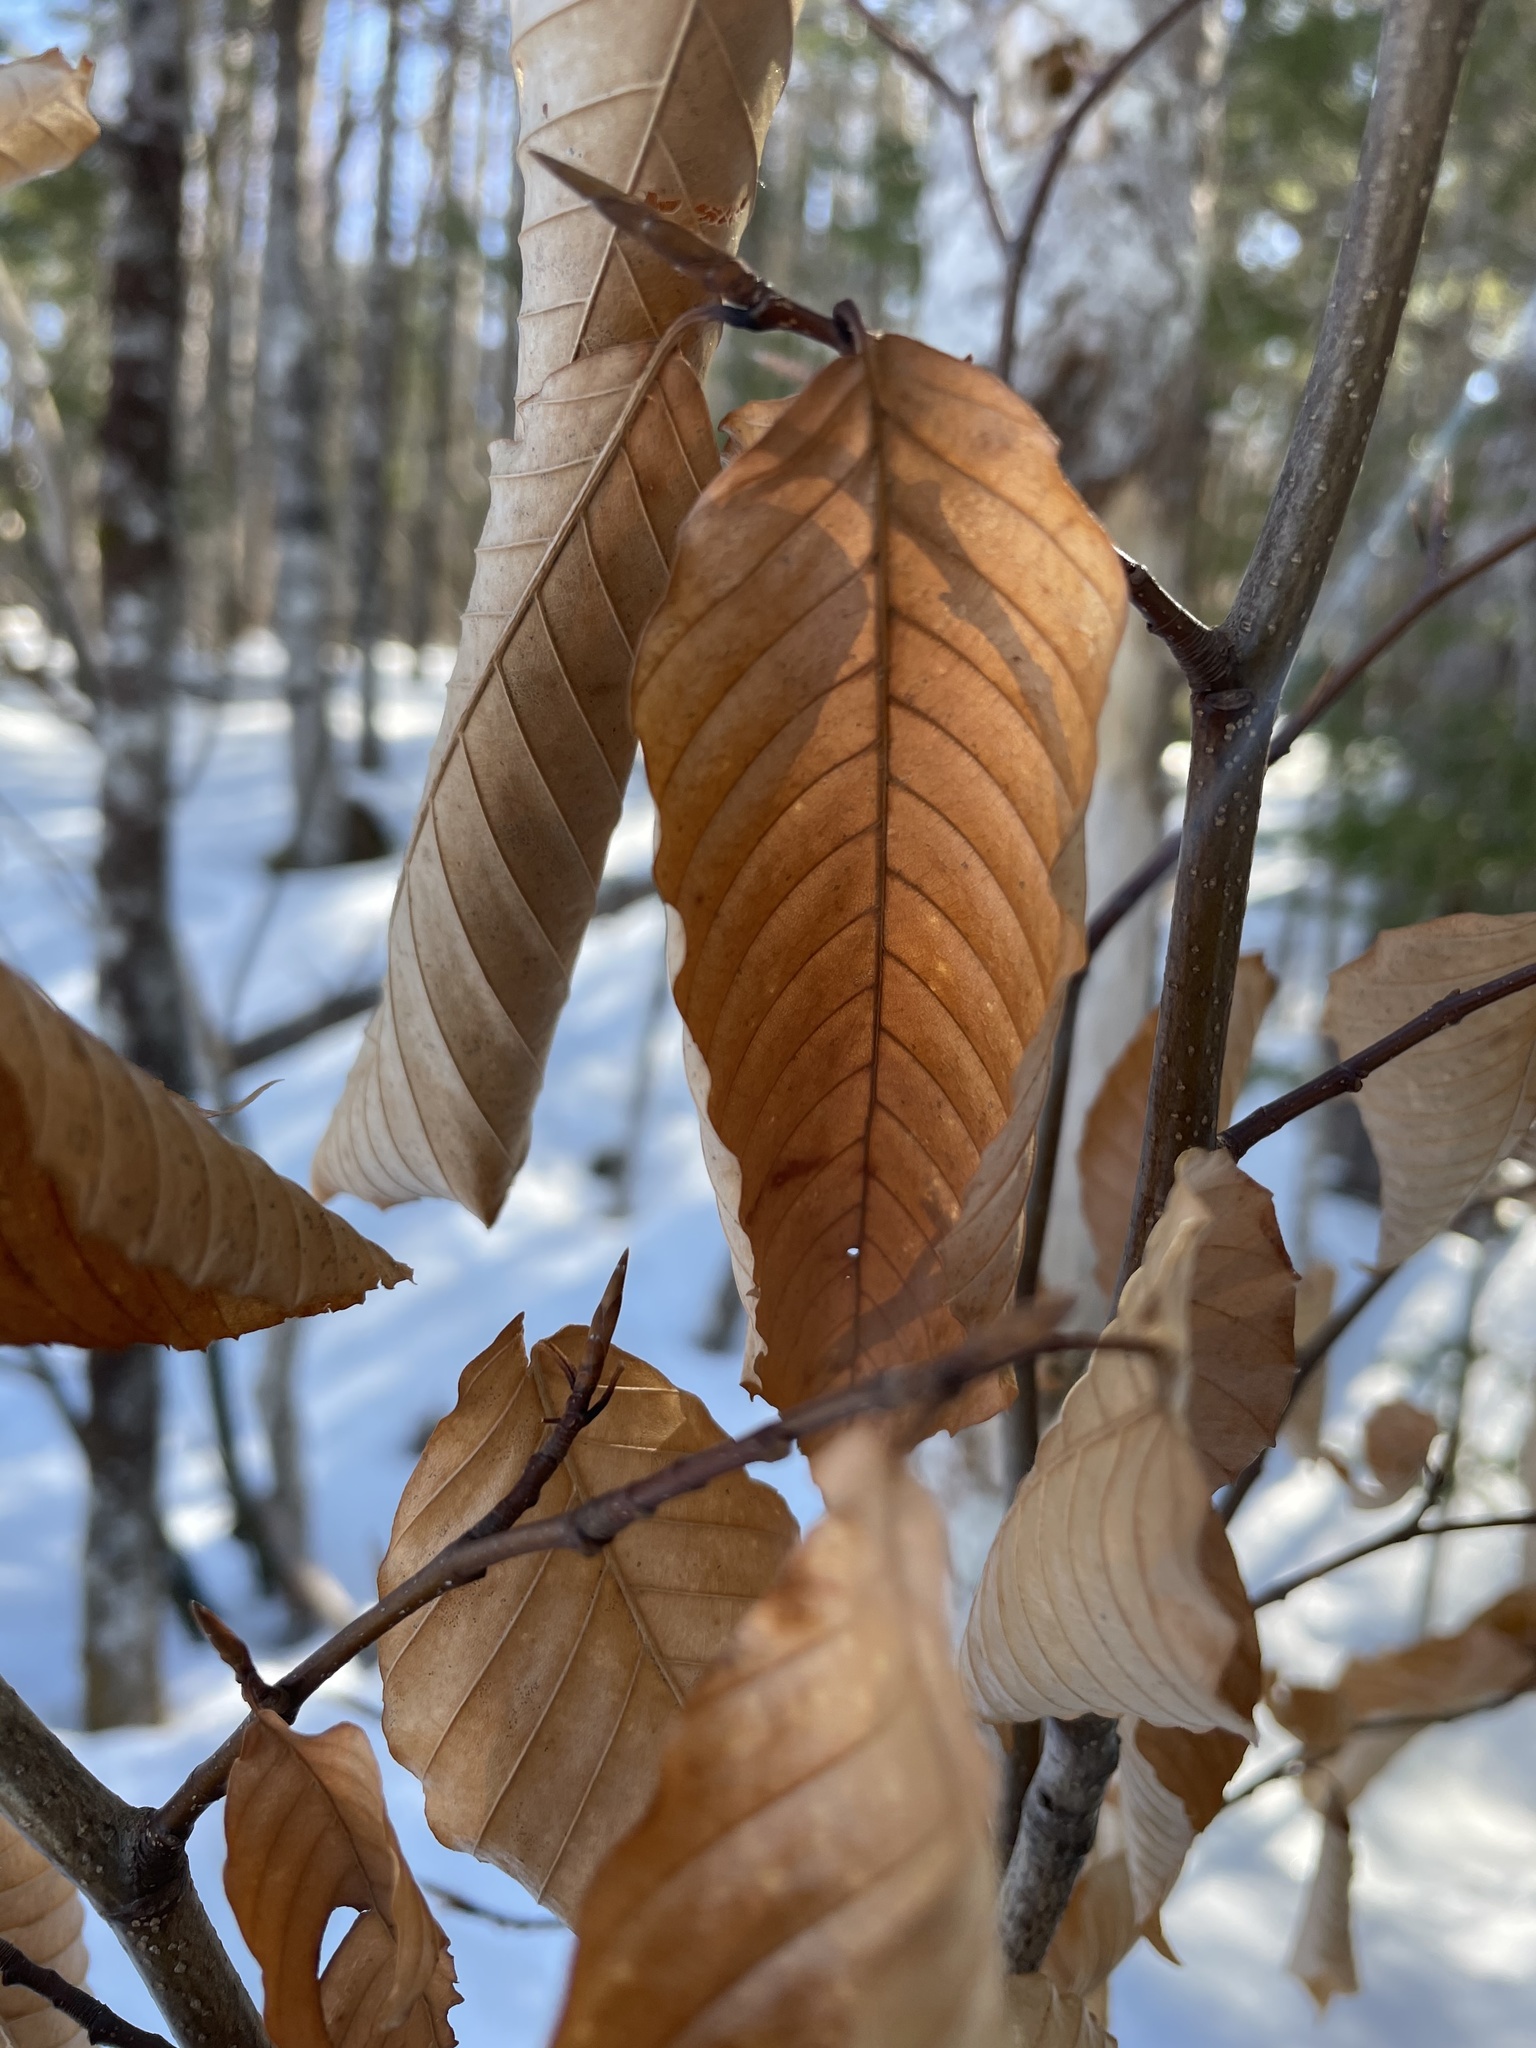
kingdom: Plantae
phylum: Tracheophyta
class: Magnoliopsida
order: Fagales
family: Fagaceae
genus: Fagus
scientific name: Fagus grandifolia
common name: American beech
